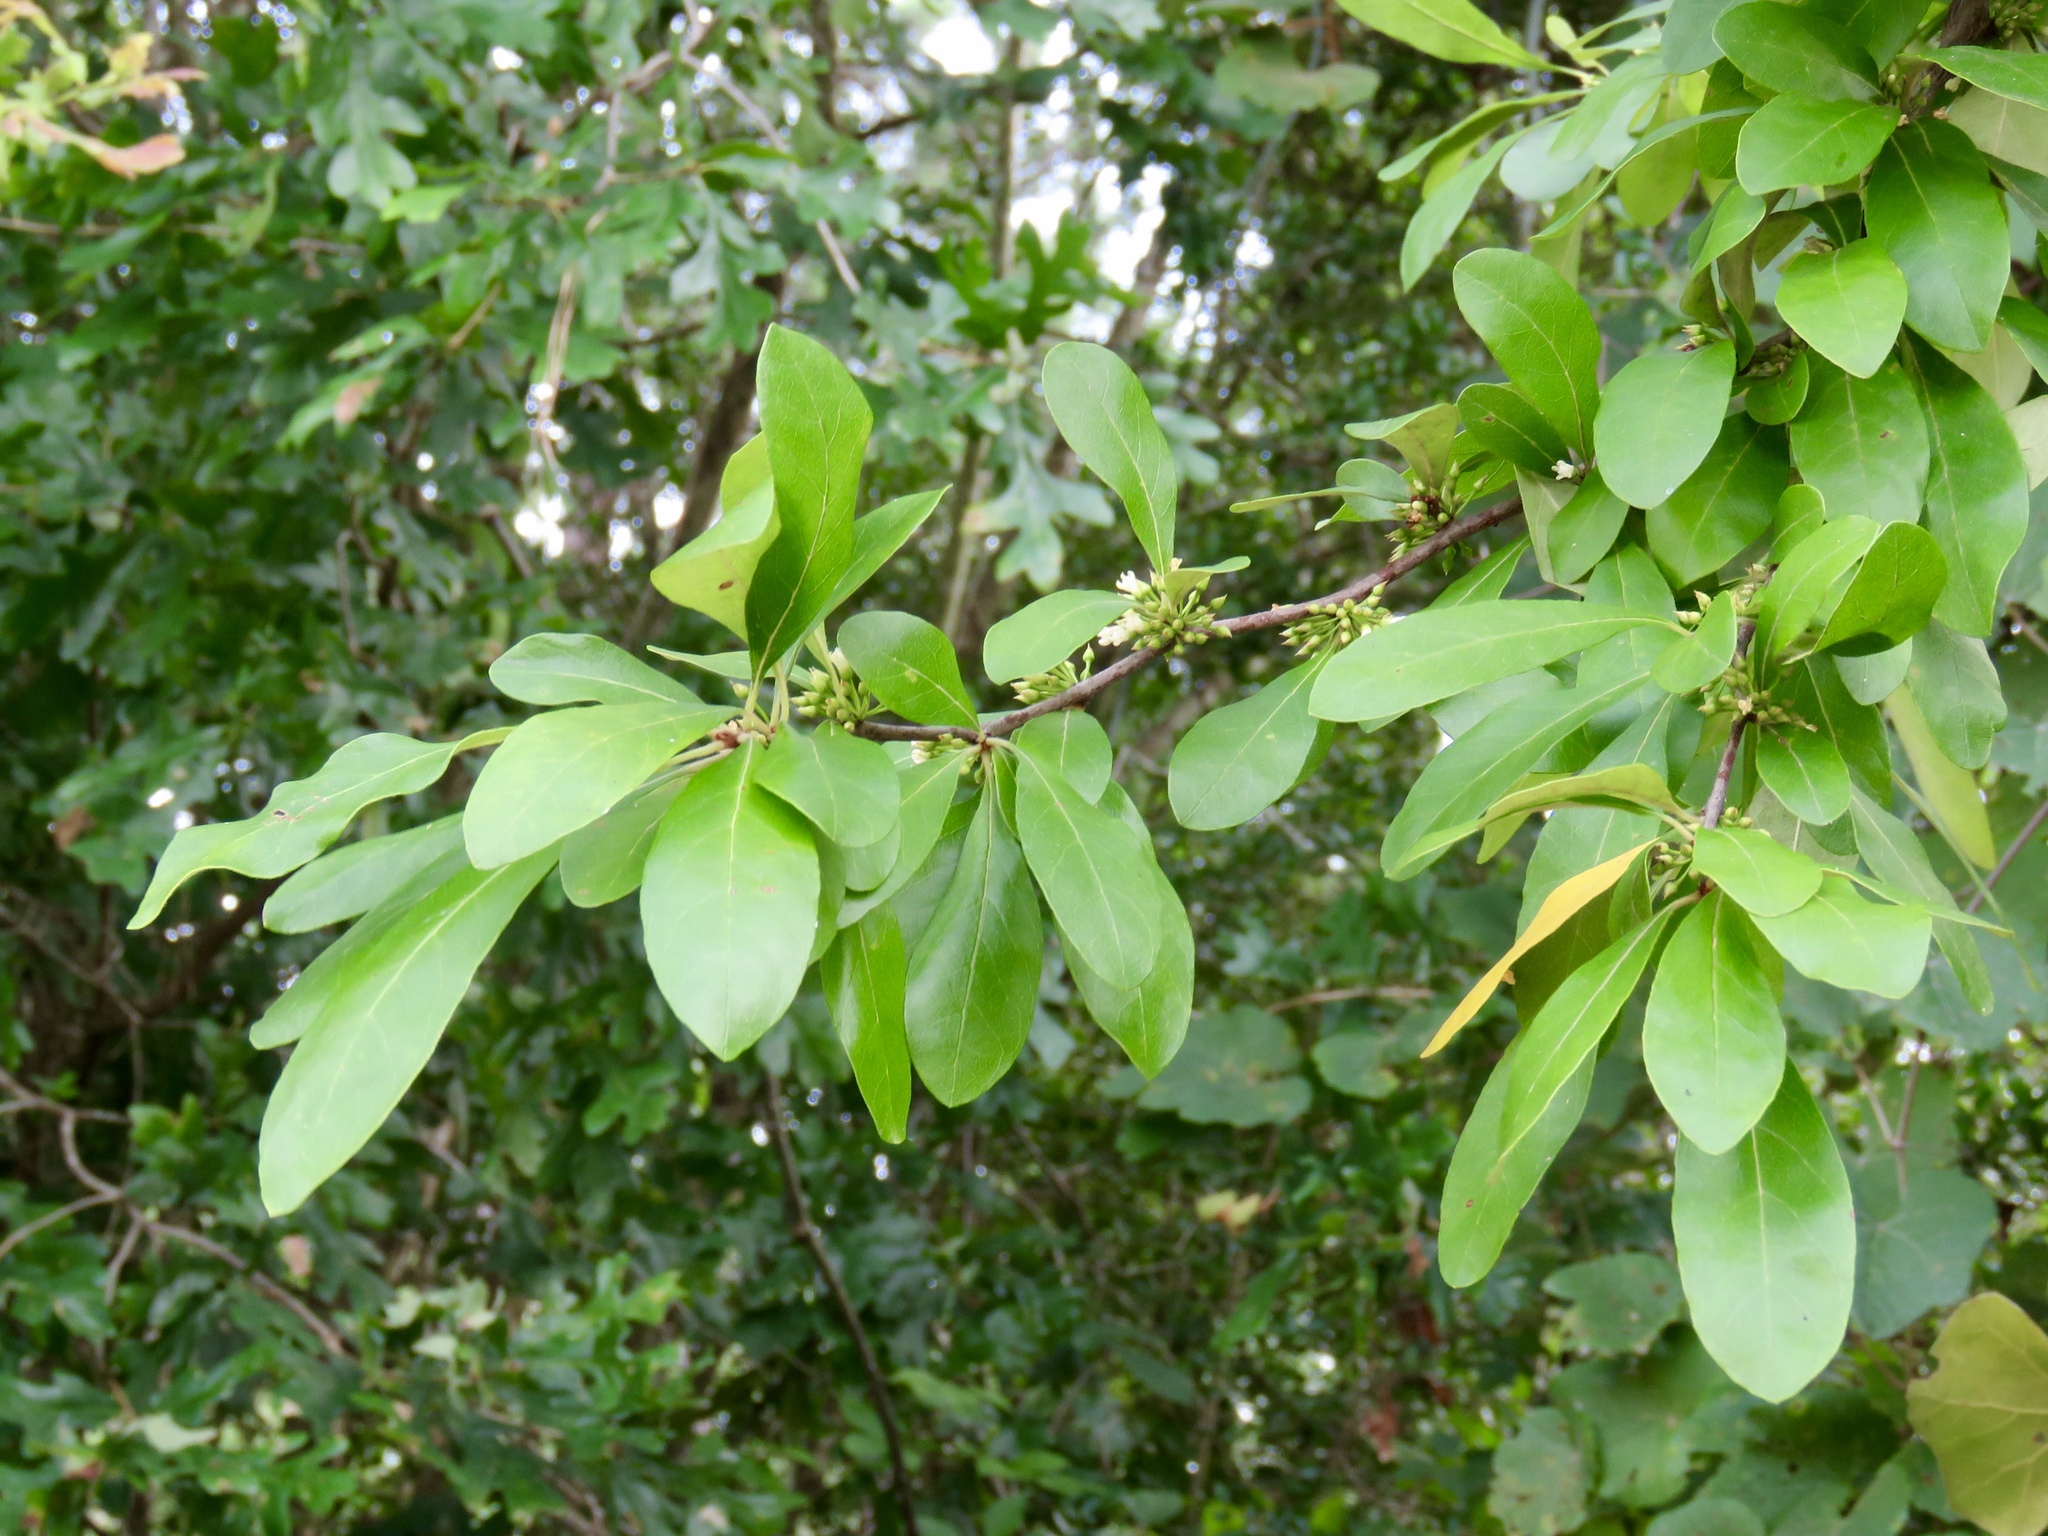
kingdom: Plantae
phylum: Tracheophyta
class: Magnoliopsida
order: Ericales
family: Sapotaceae
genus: Sideroxylon
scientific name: Sideroxylon lanuginosum
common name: Chittamwood
